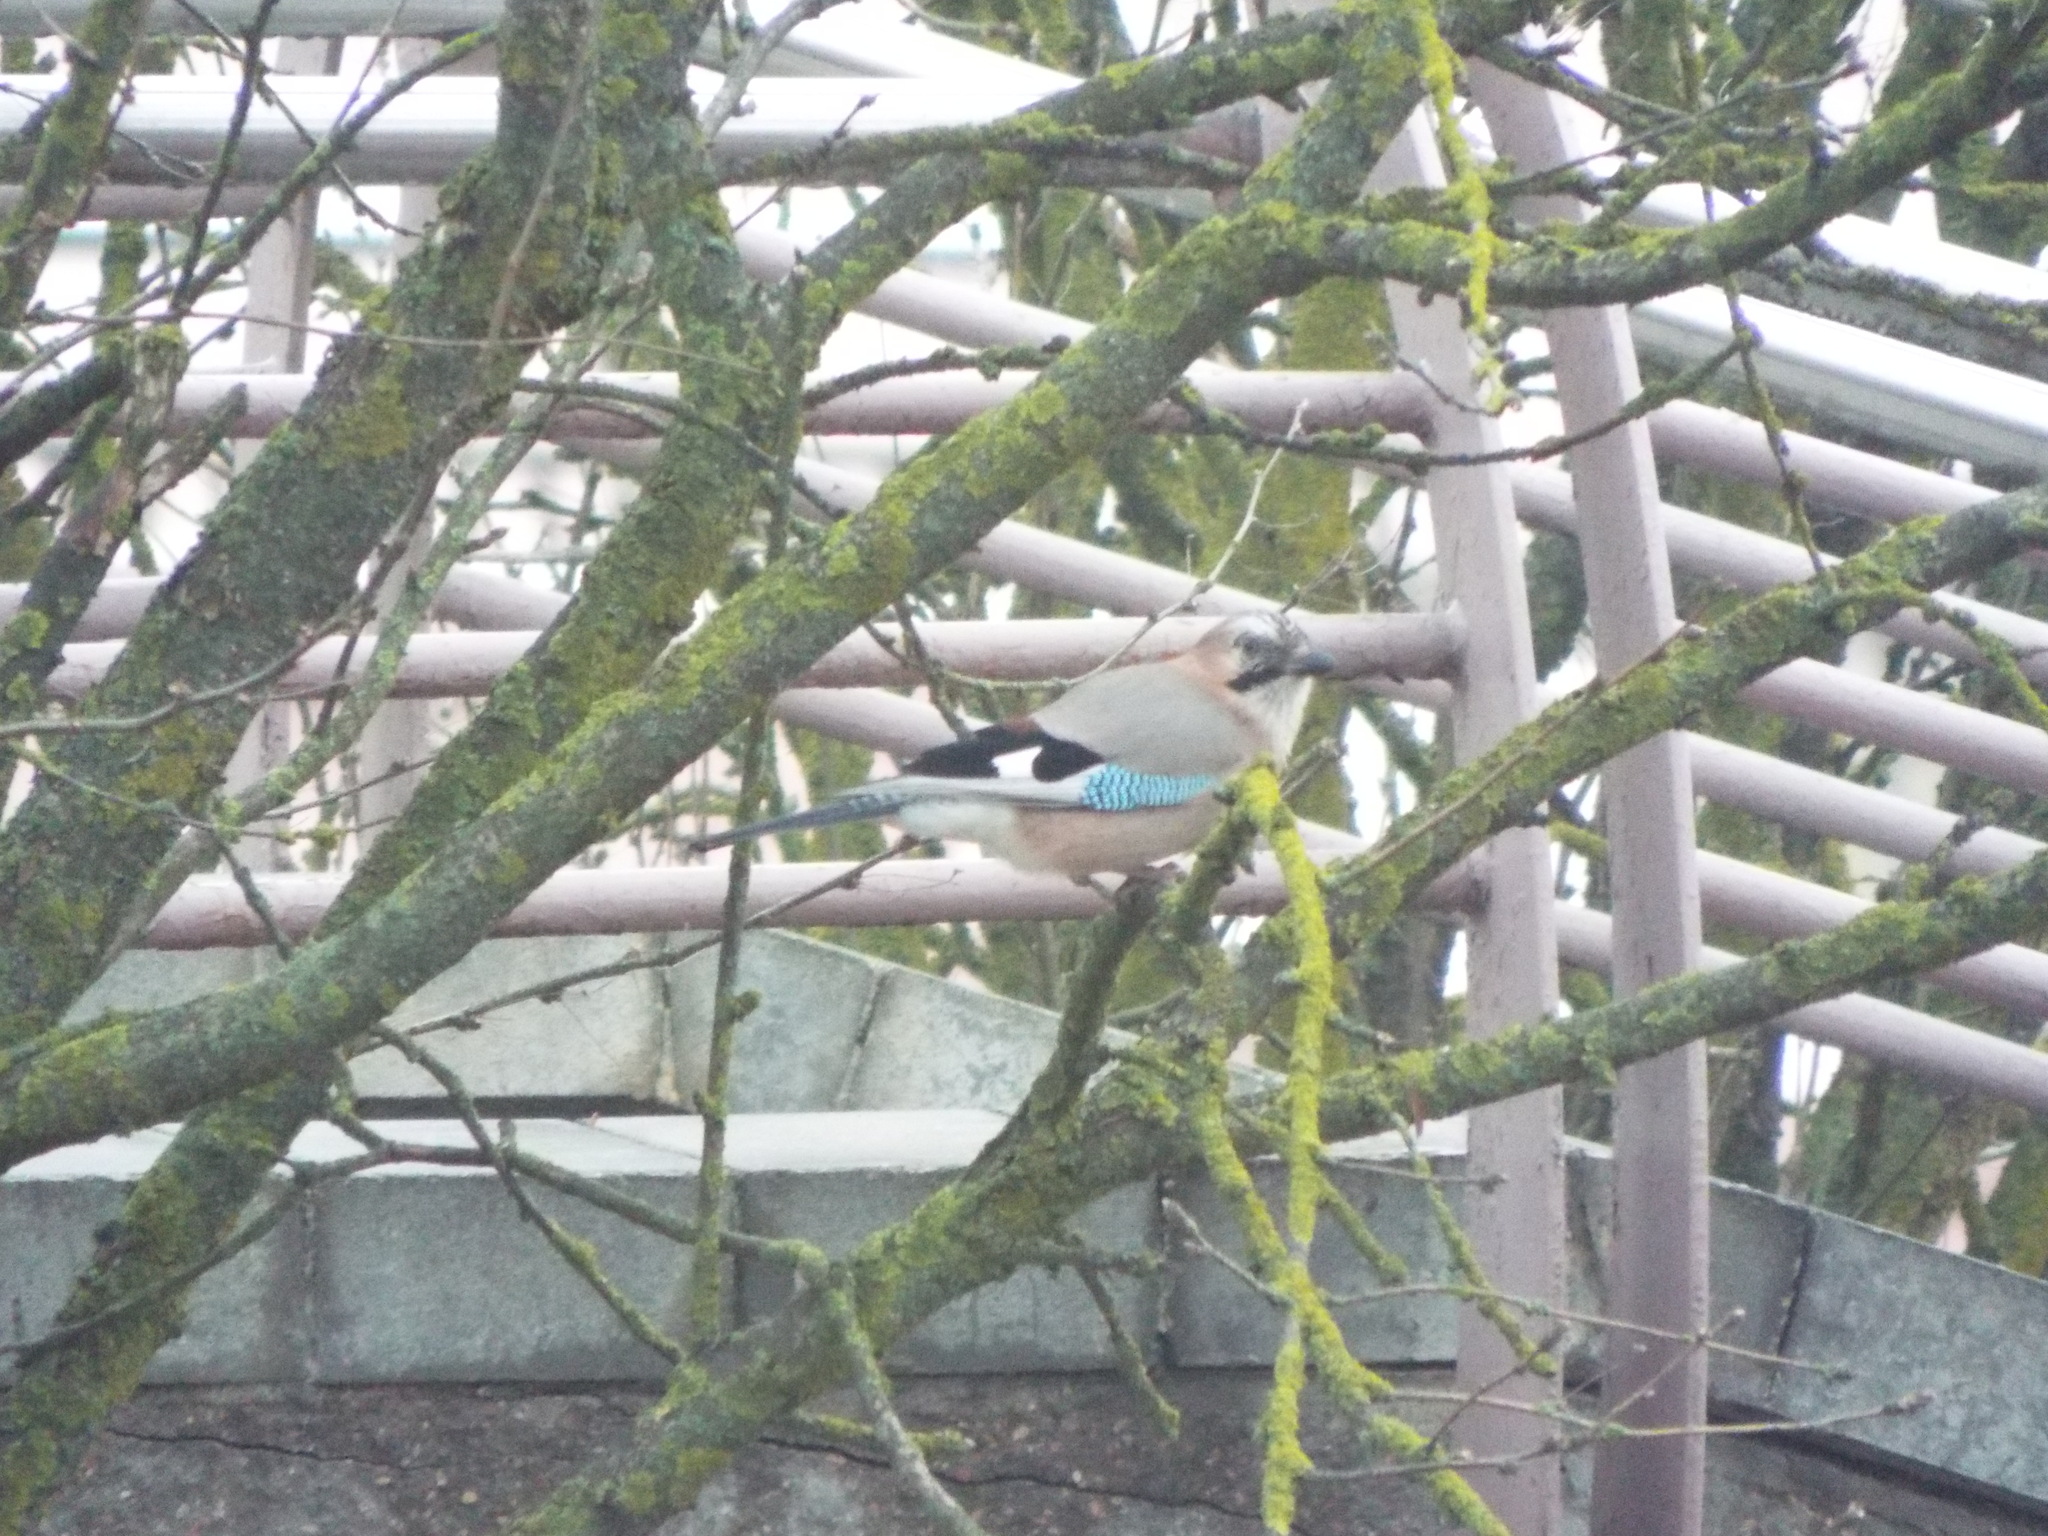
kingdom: Animalia
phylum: Chordata
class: Aves
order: Passeriformes
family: Corvidae
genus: Garrulus
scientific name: Garrulus glandarius
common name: Eurasian jay
